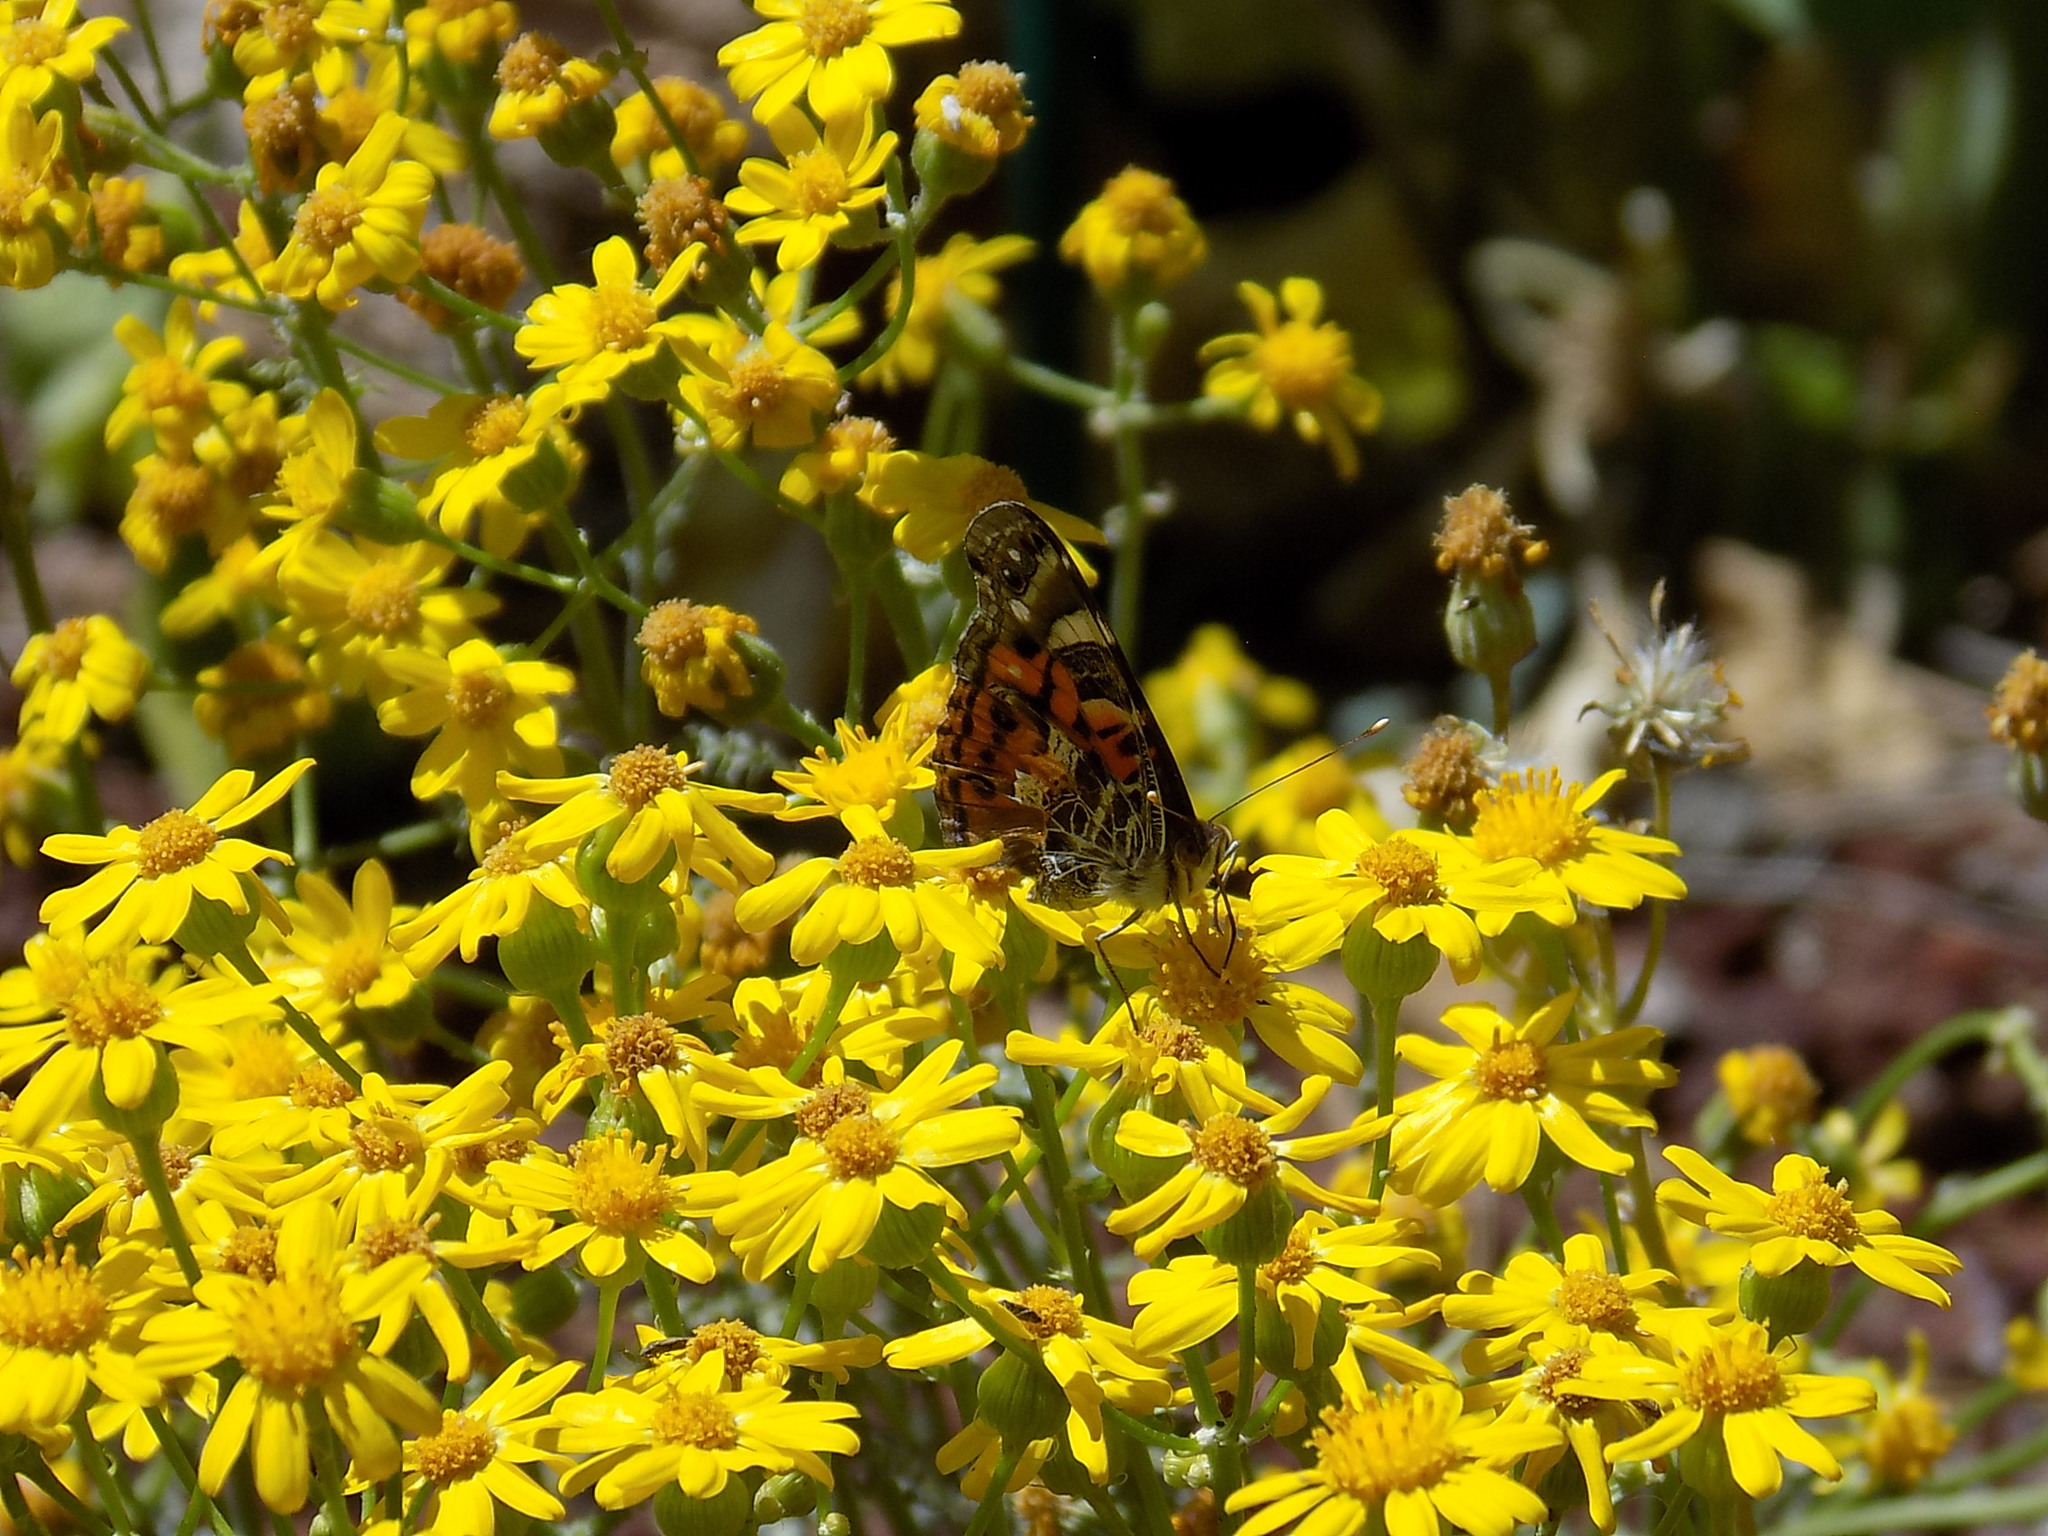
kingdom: Animalia
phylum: Arthropoda
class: Insecta
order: Lepidoptera
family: Nymphalidae
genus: Vanessa
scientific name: Vanessa virginiensis
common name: American lady
